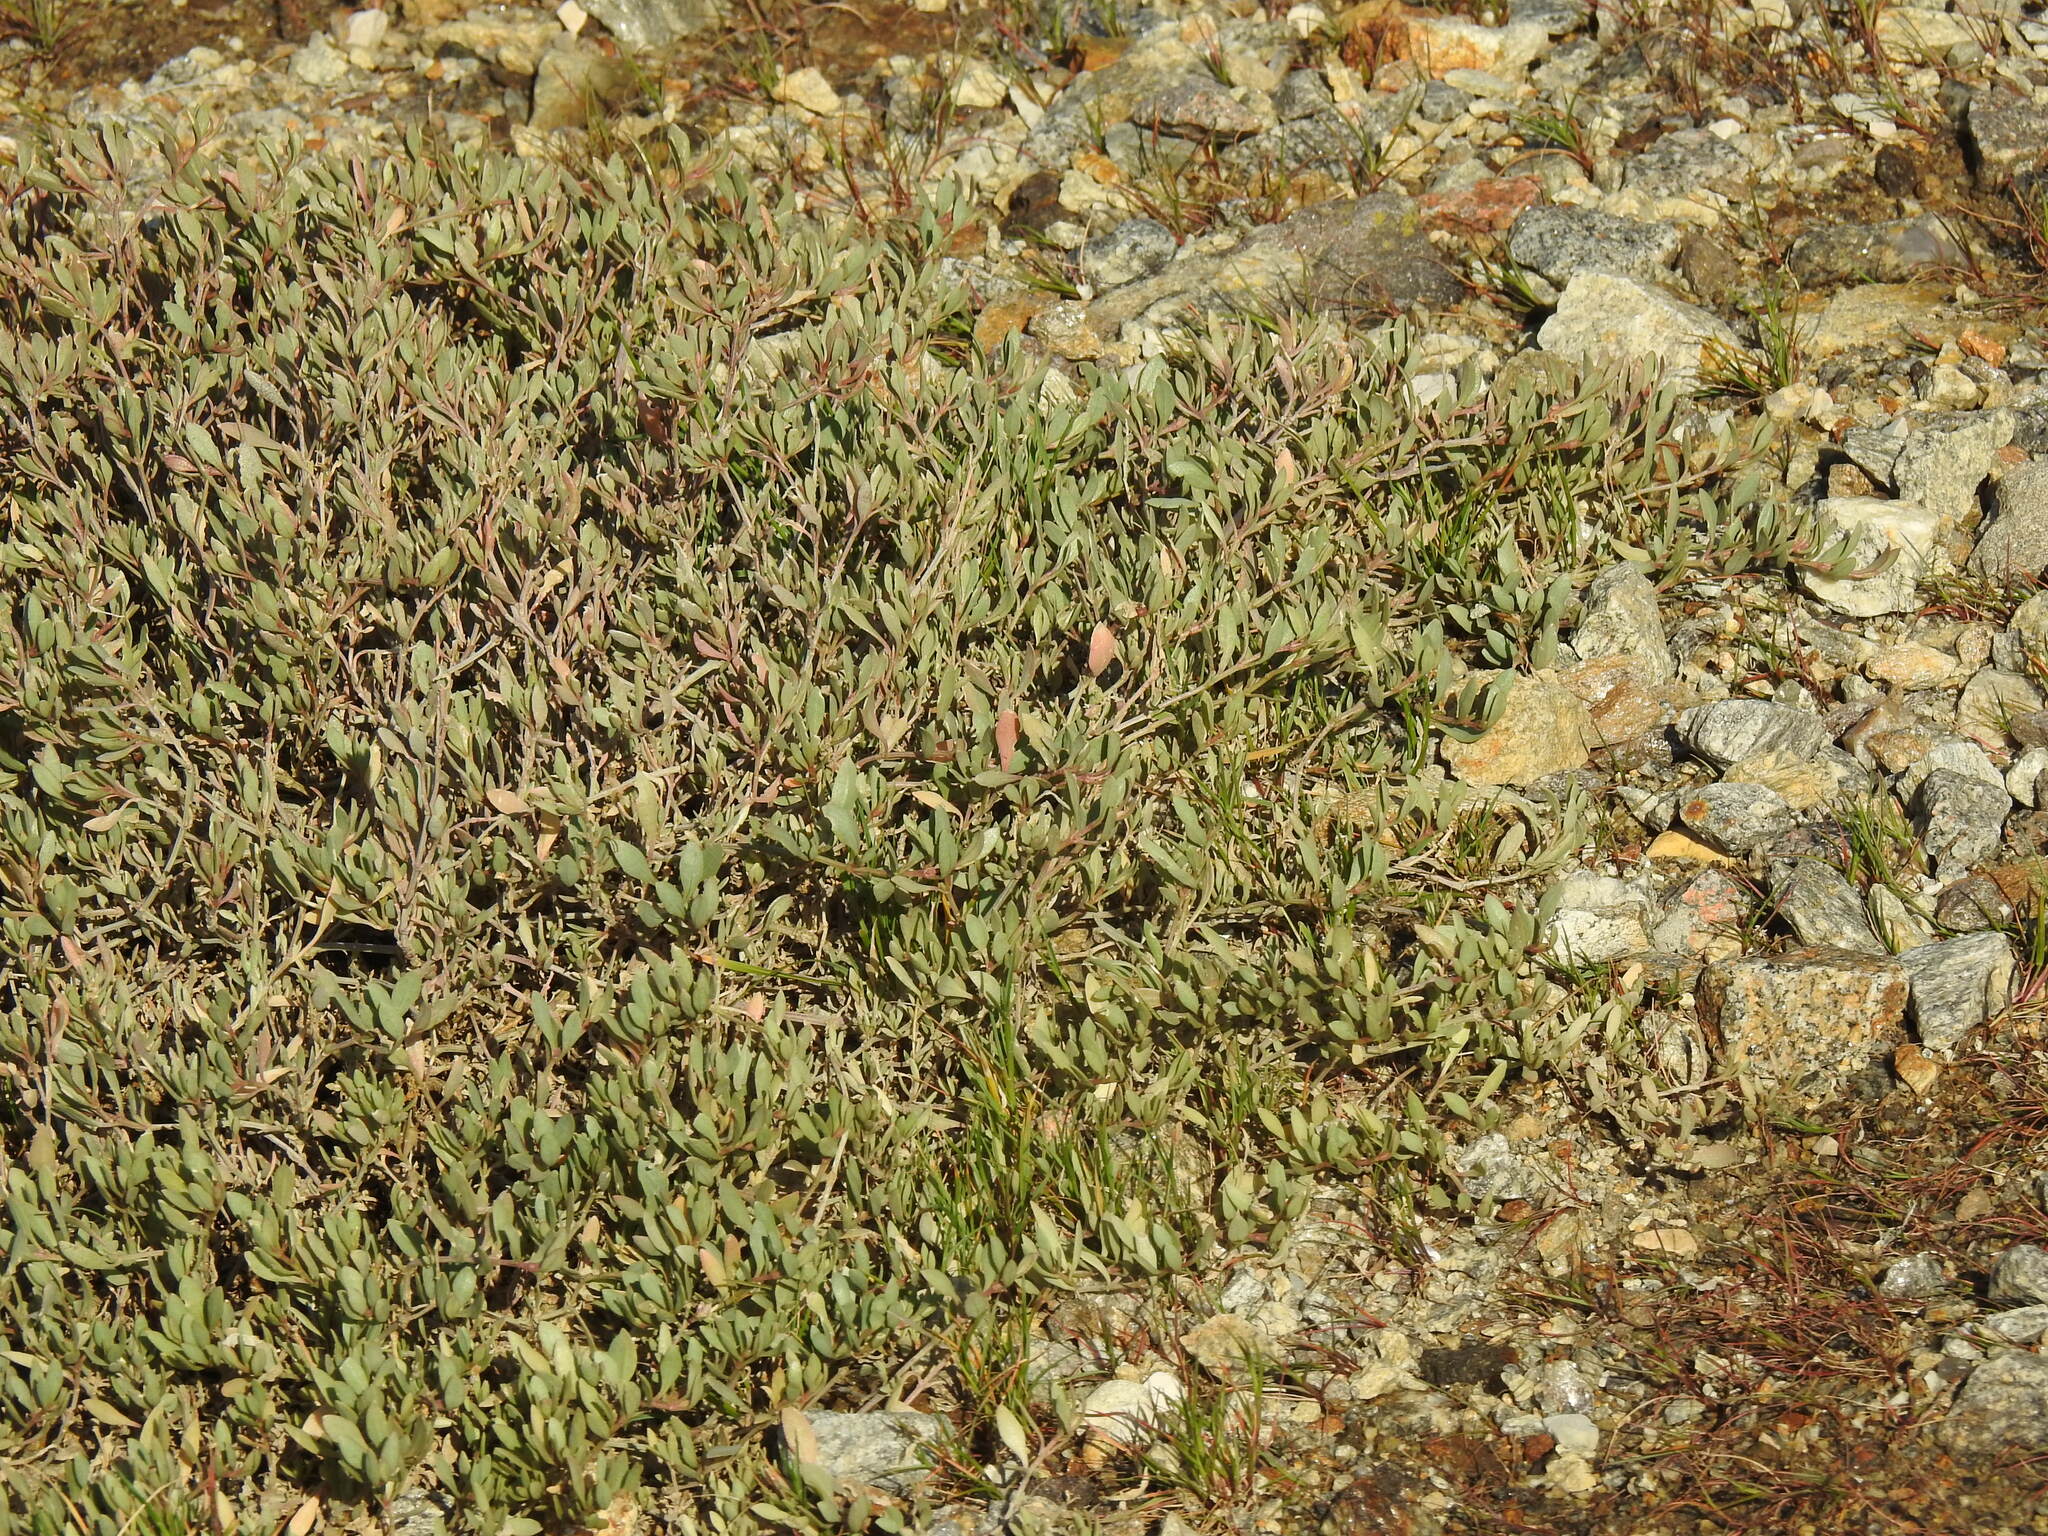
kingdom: Plantae
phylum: Tracheophyta
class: Magnoliopsida
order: Caryophyllales
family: Amaranthaceae
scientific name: Amaranthaceae
